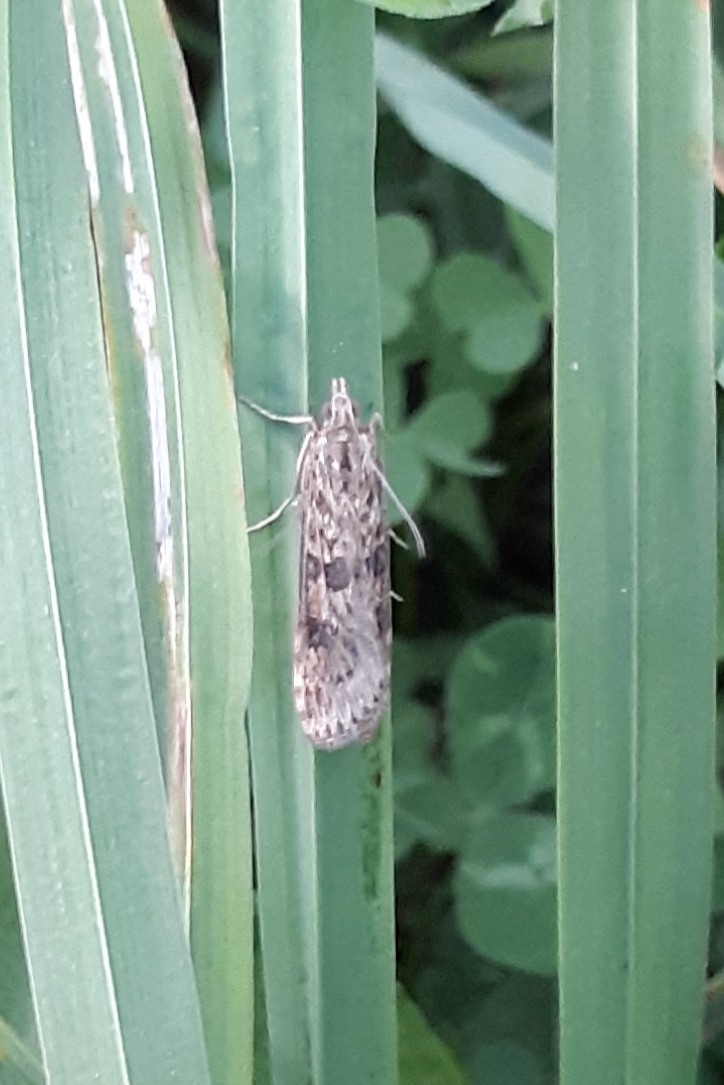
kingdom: Animalia
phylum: Arthropoda
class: Insecta
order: Lepidoptera
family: Crambidae
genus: Nomophila
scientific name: Nomophila nearctica
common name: American rush veneer
